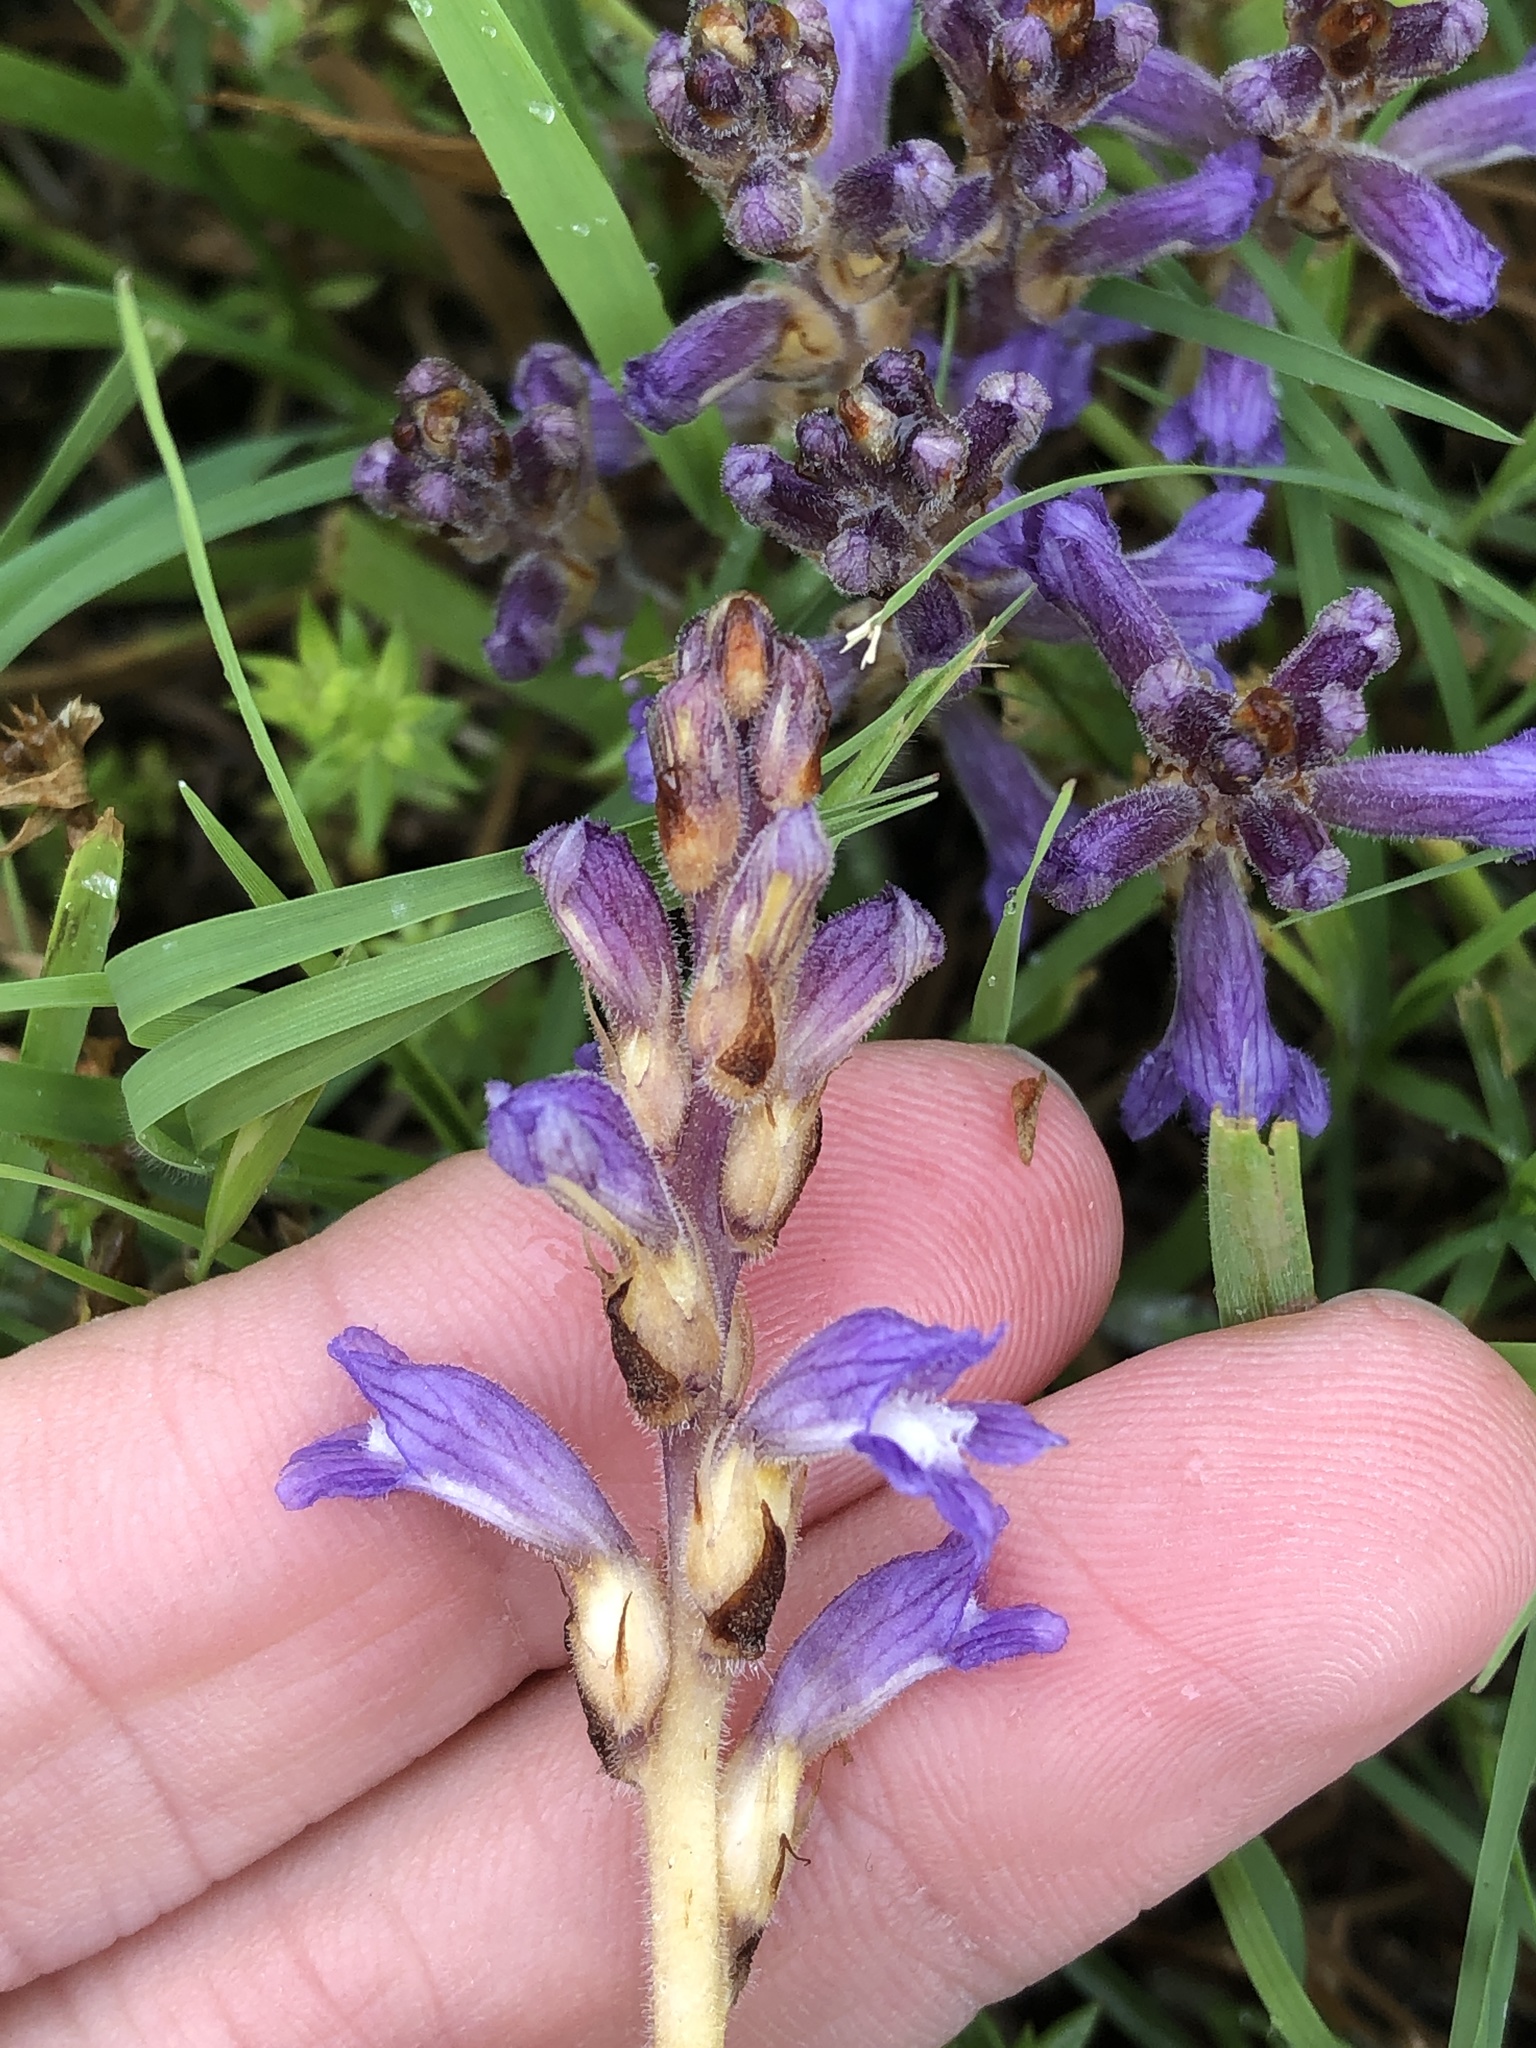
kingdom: Plantae
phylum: Tracheophyta
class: Magnoliopsida
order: Lamiales
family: Orobanchaceae
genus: Phelipanche
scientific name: Phelipanche mutelii
